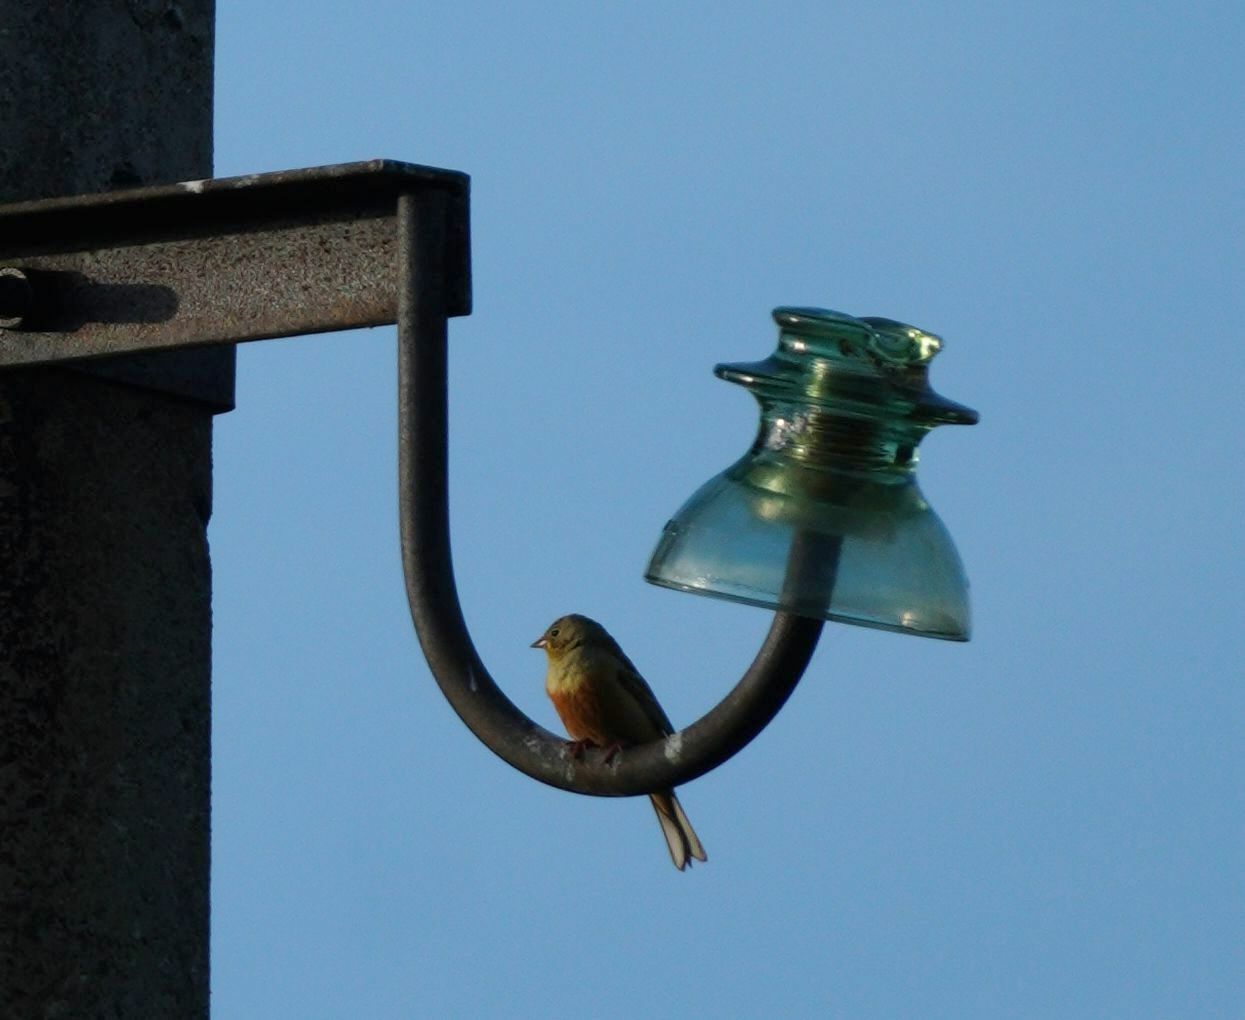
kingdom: Animalia
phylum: Chordata
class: Aves
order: Passeriformes
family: Emberizidae
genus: Emberiza
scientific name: Emberiza hortulana
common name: Ortolan bunting
